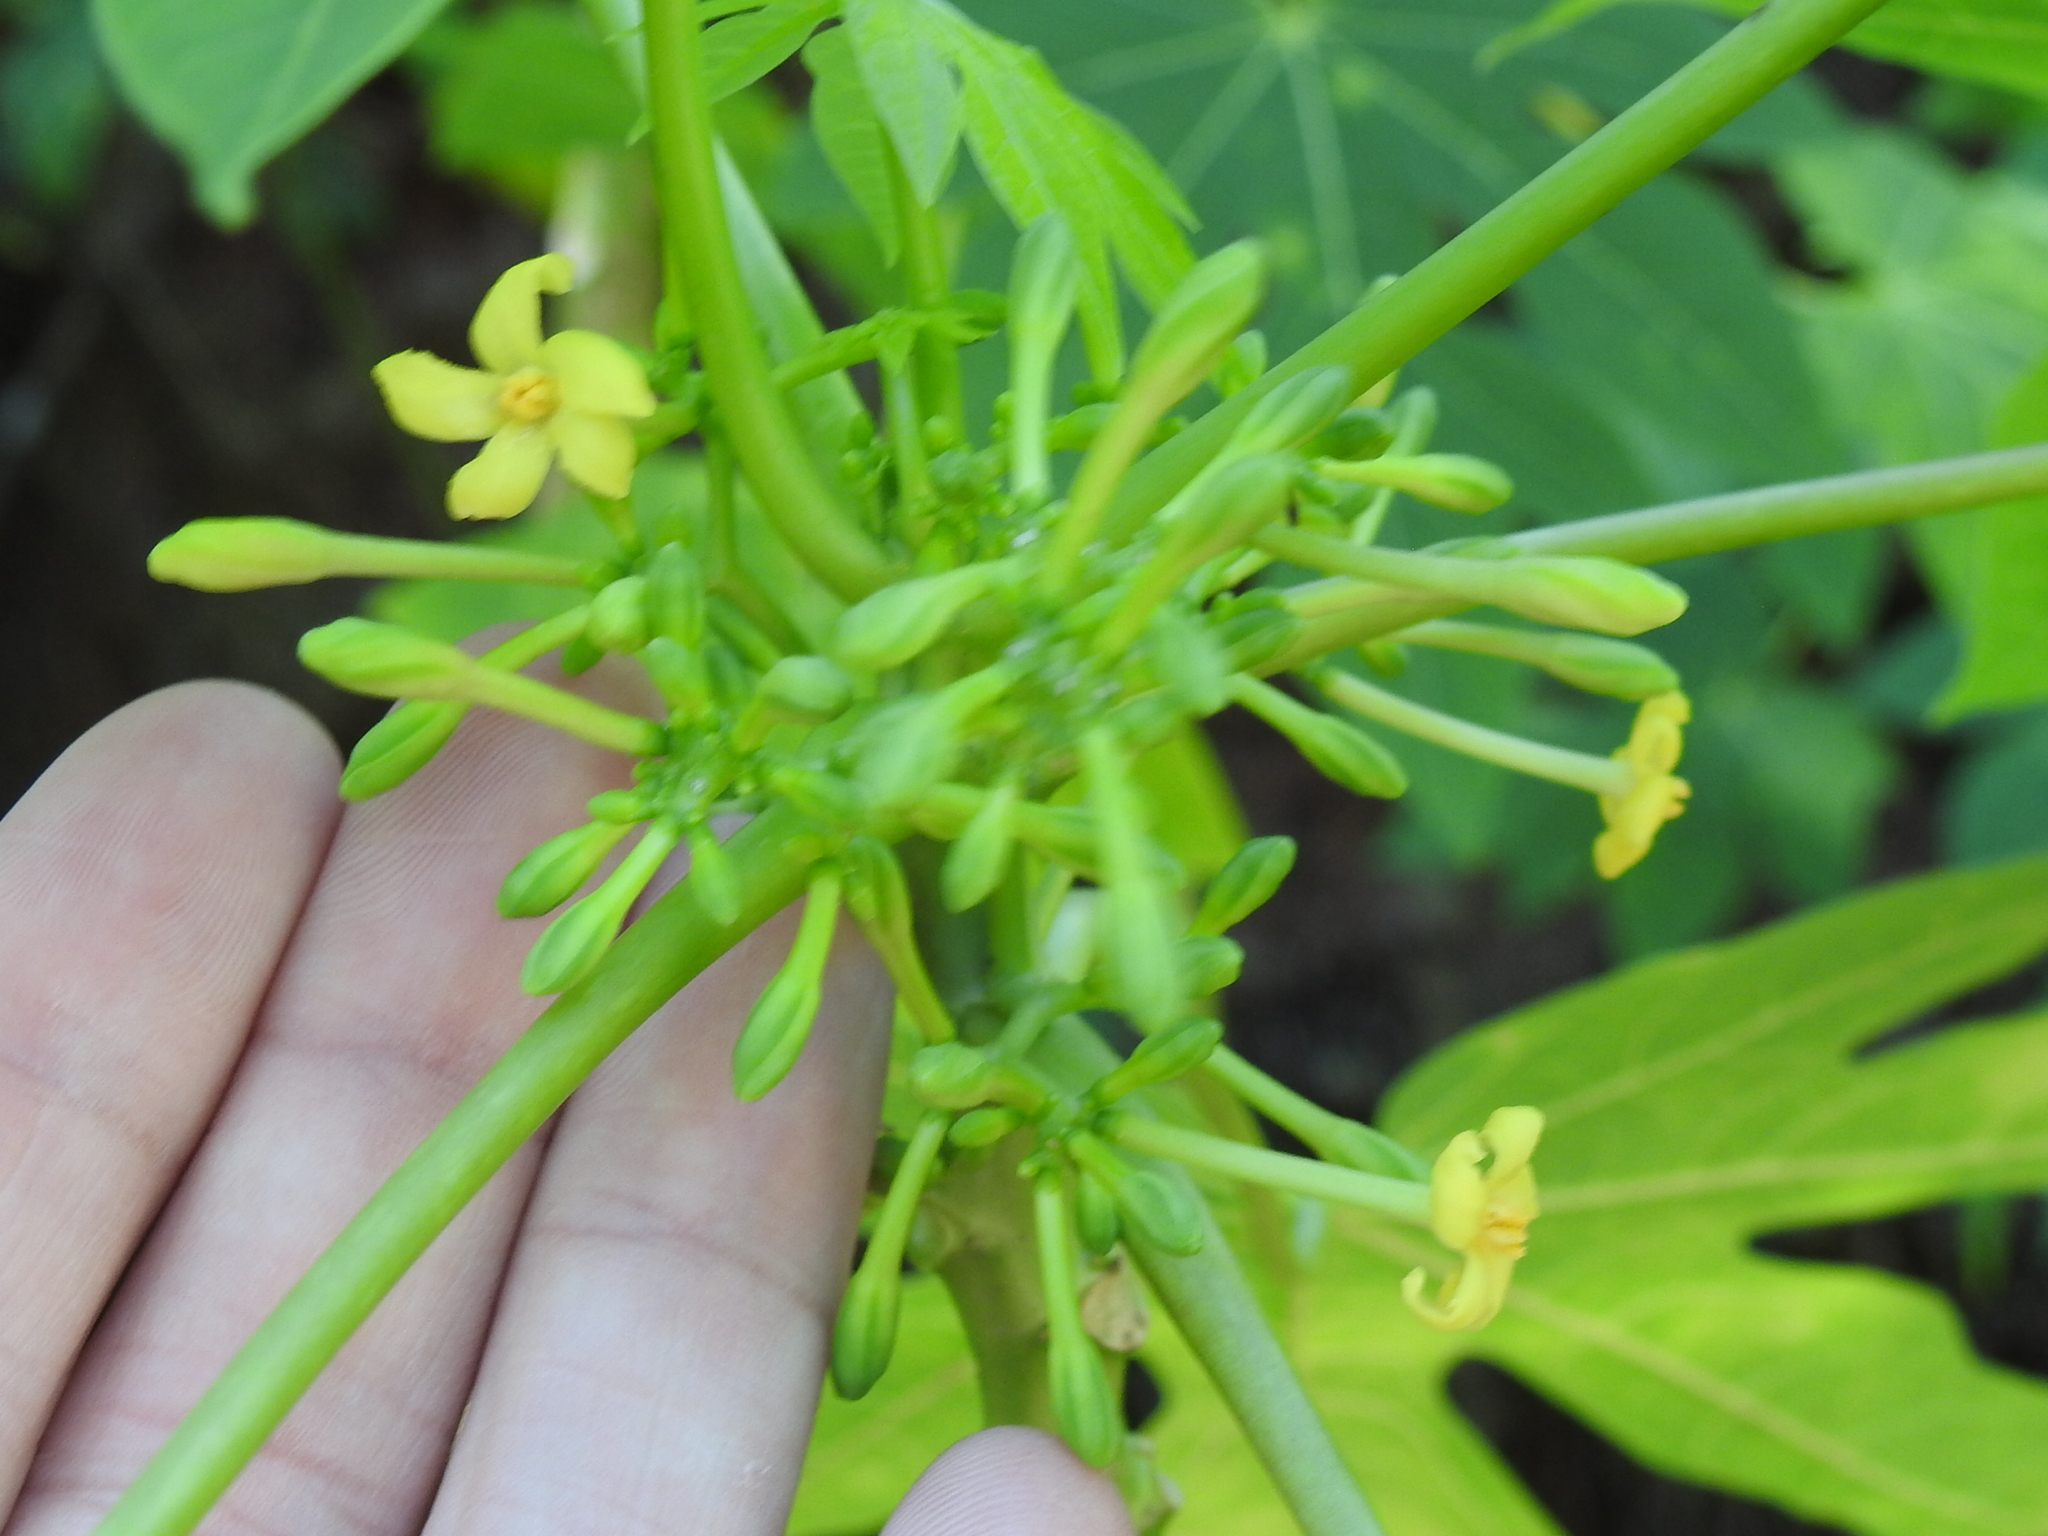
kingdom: Plantae
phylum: Tracheophyta
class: Magnoliopsida
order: Brassicales
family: Caricaceae
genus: Carica
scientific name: Carica papaya
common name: Papaya
